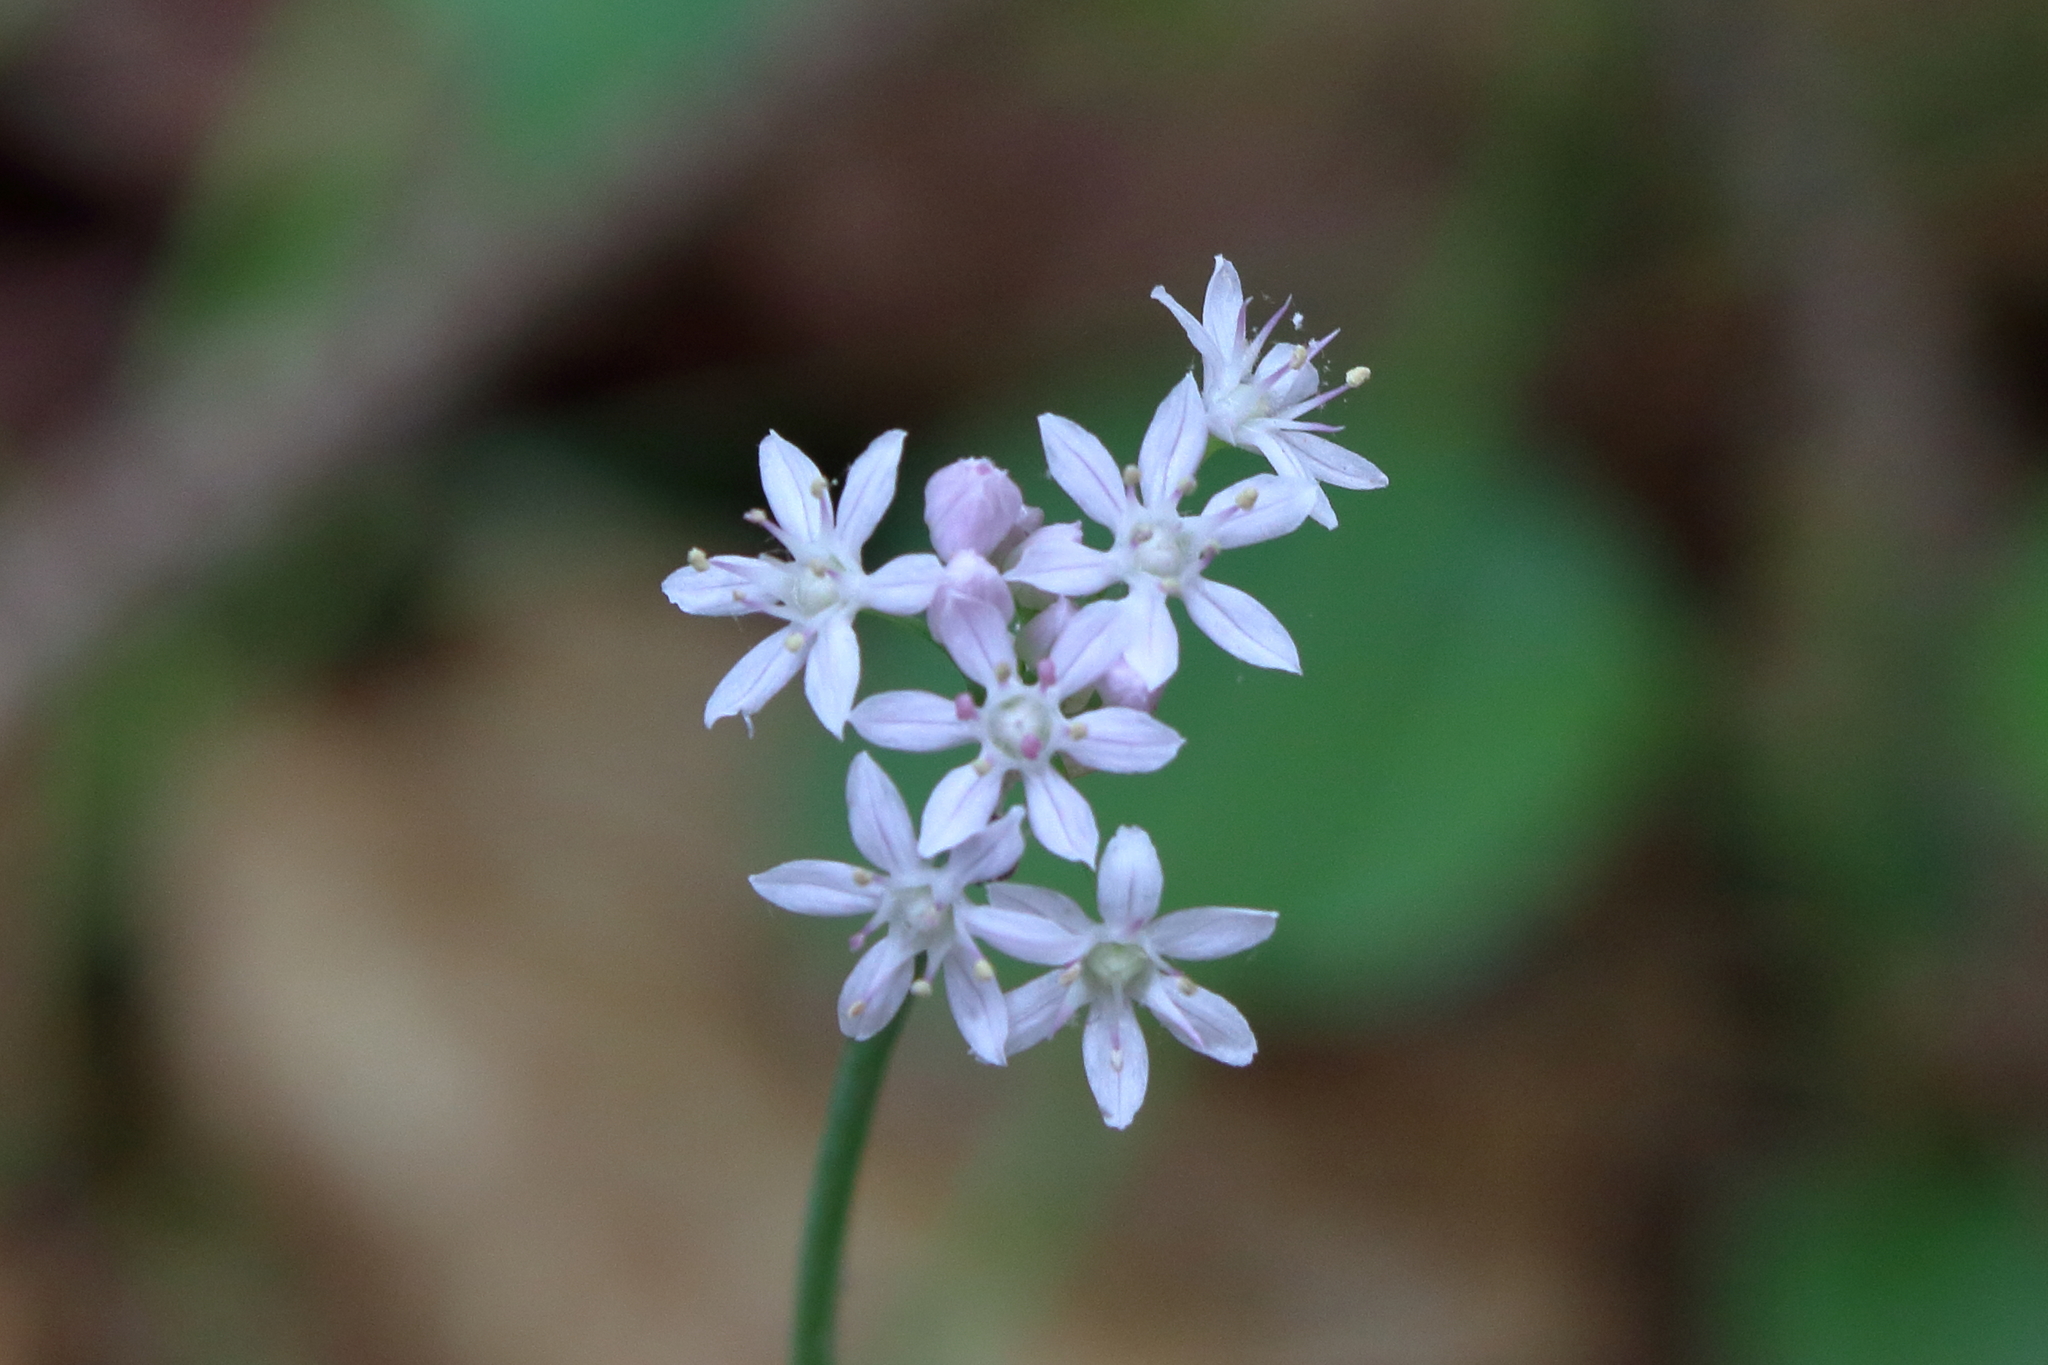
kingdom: Plantae
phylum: Tracheophyta
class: Liliopsida
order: Asparagales
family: Amaryllidaceae
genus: Allium
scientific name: Allium canadense
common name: Meadow garlic
